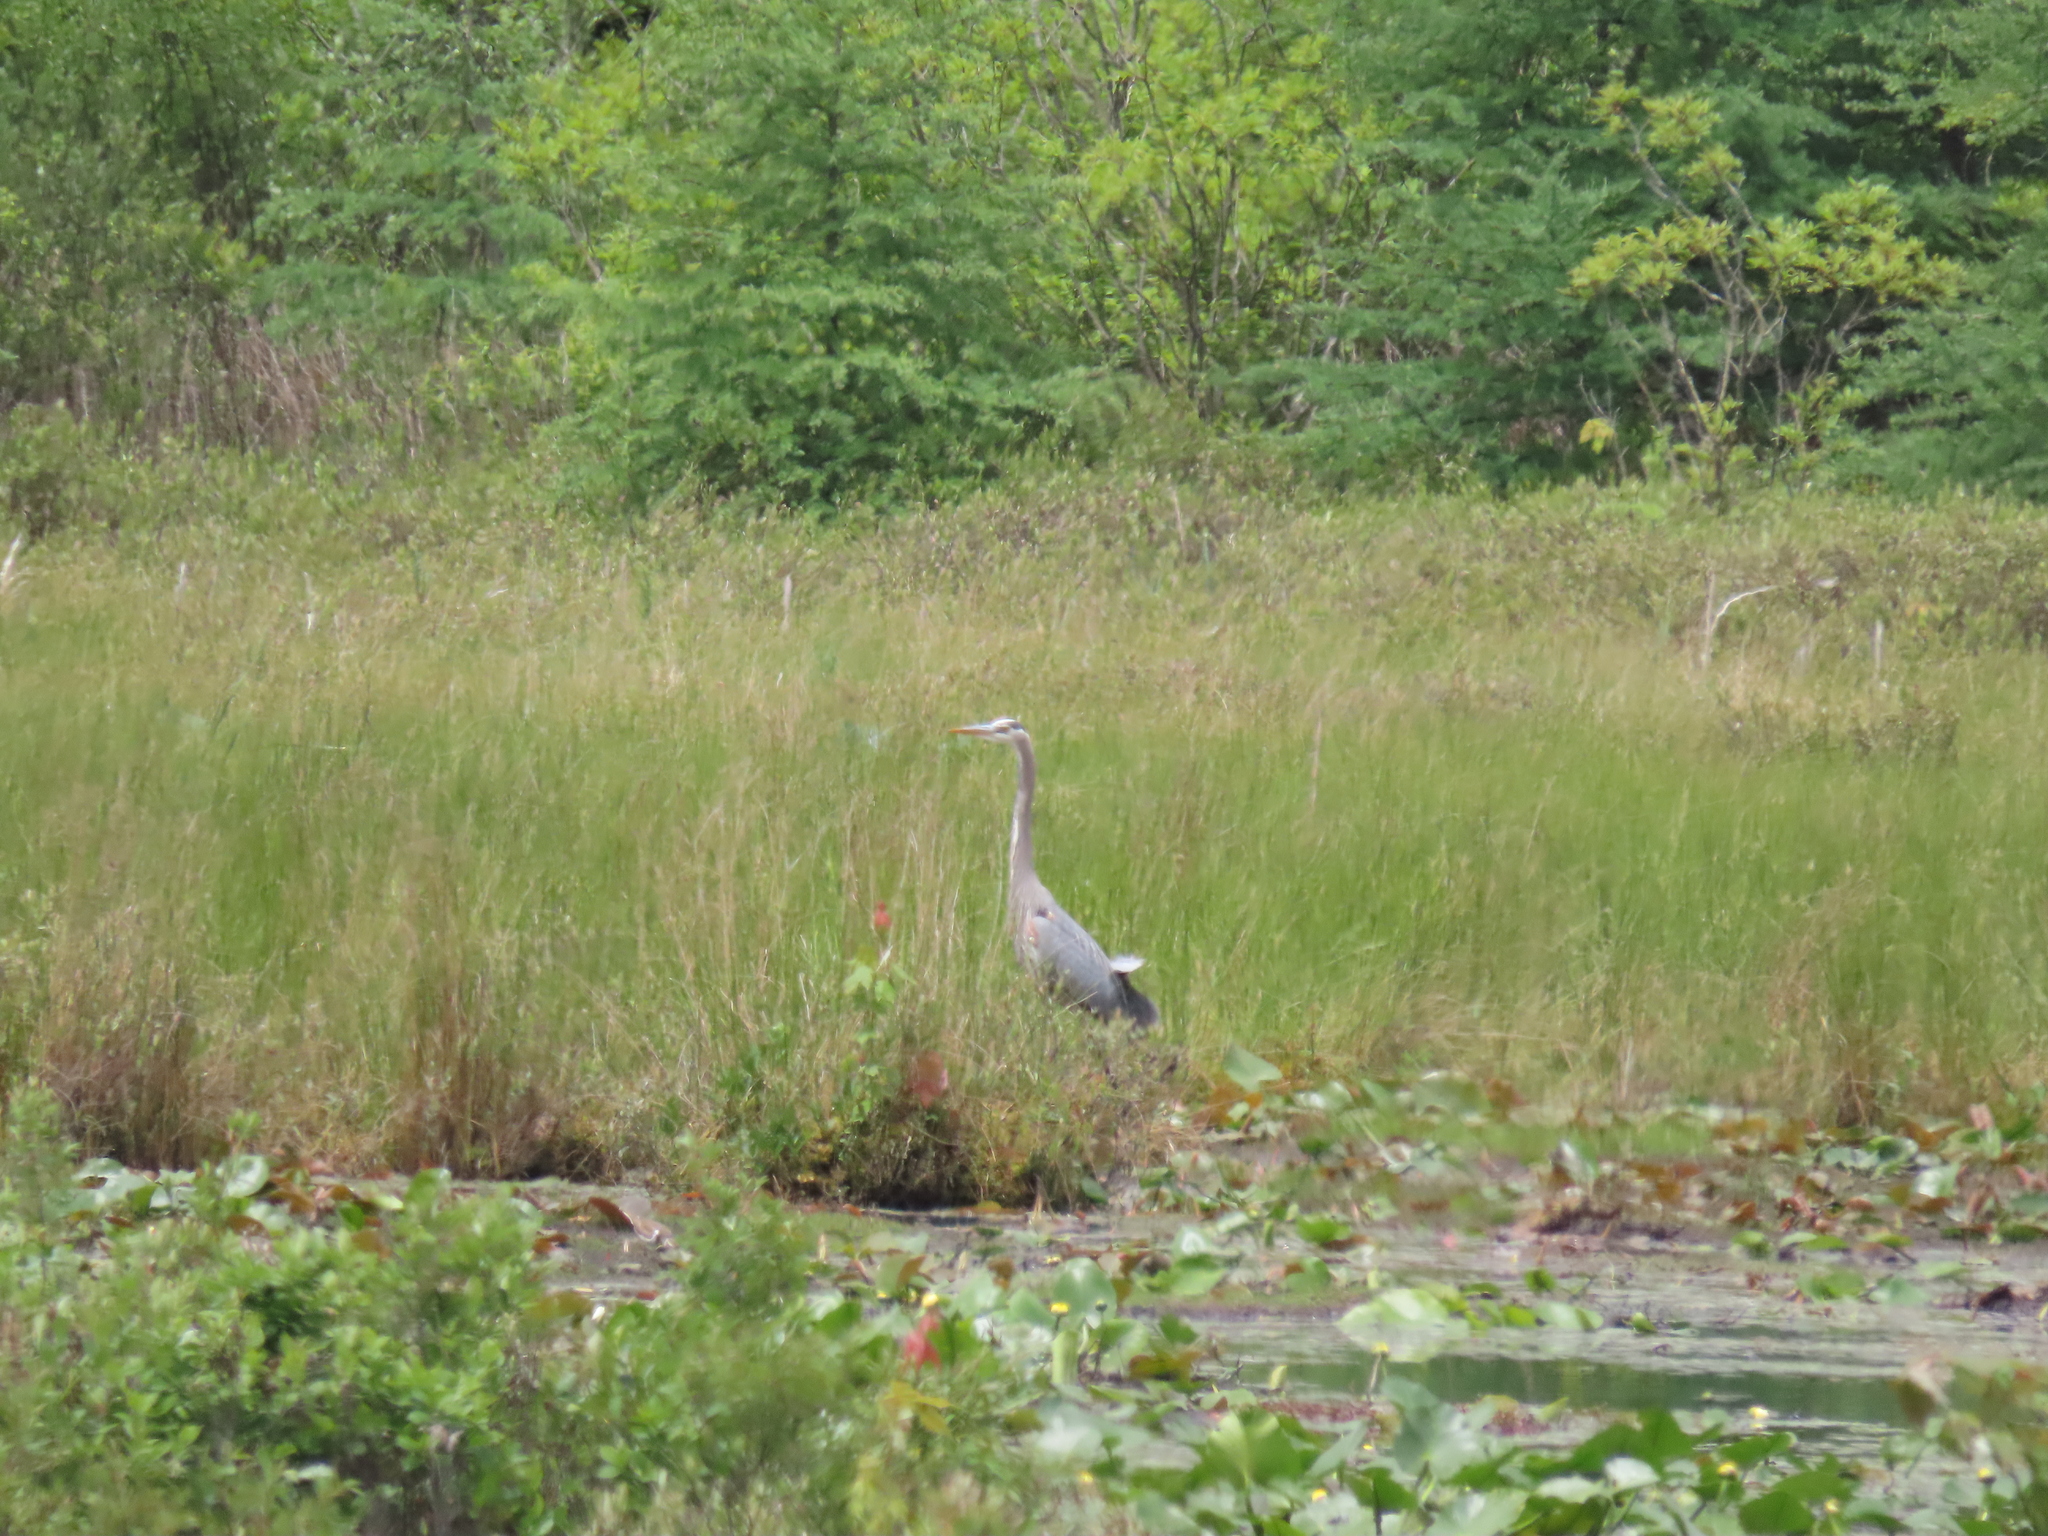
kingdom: Animalia
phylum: Chordata
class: Aves
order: Pelecaniformes
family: Ardeidae
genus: Ardea
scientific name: Ardea herodias
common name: Great blue heron
